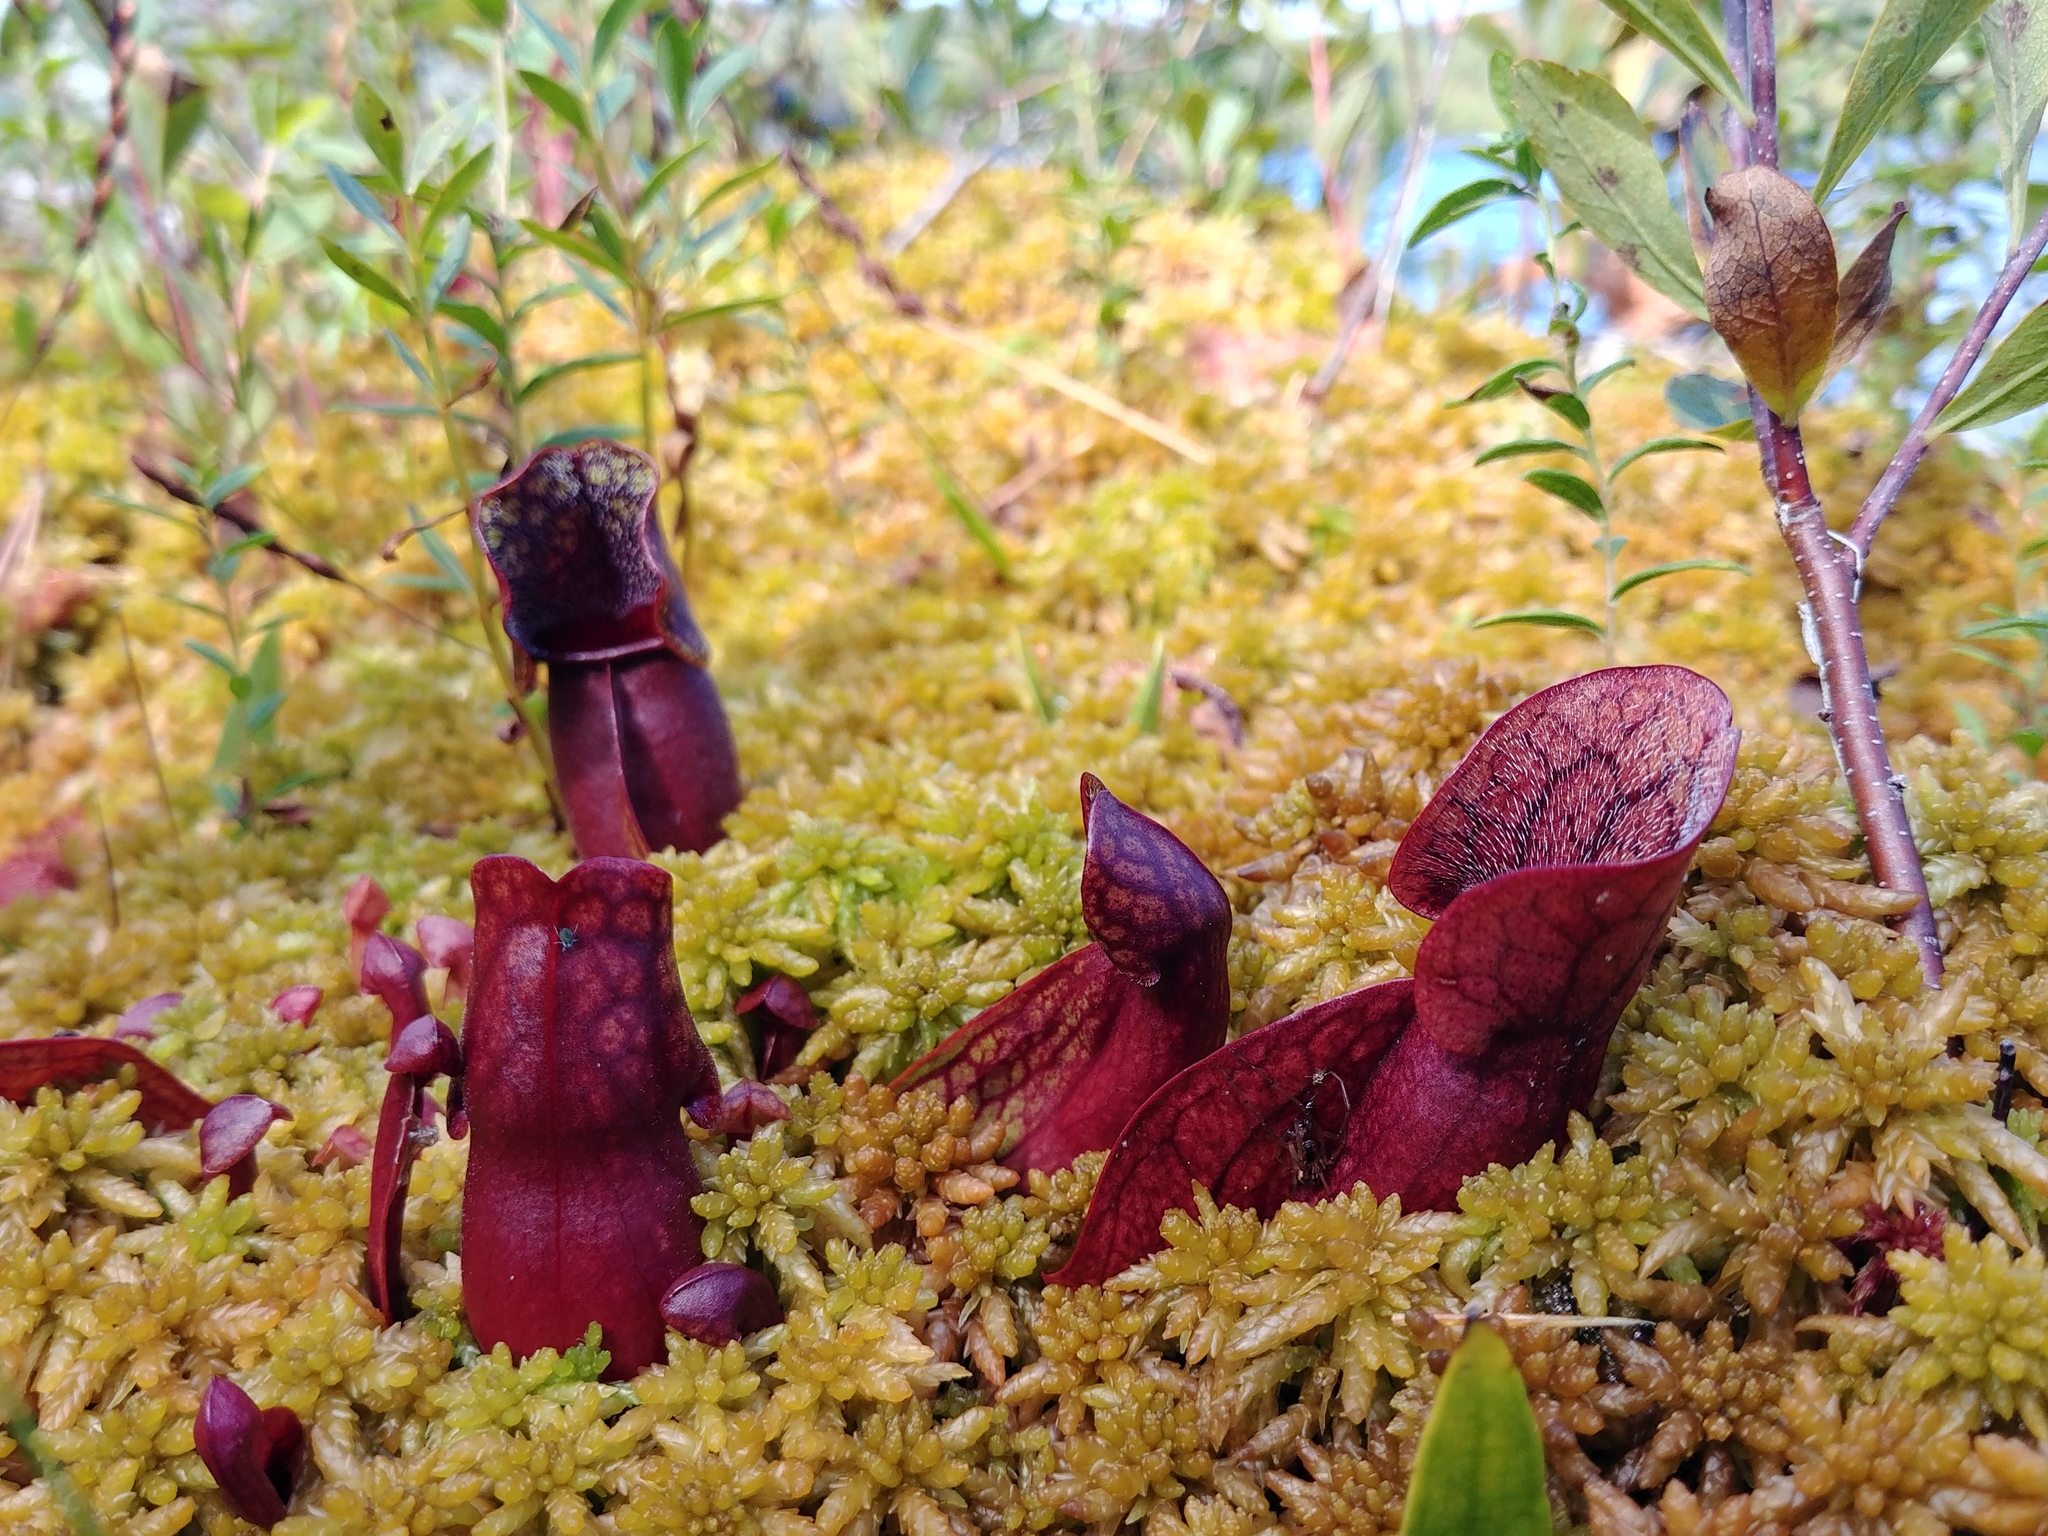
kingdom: Plantae
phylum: Tracheophyta
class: Magnoliopsida
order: Ericales
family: Sarraceniaceae
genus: Sarracenia
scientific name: Sarracenia purpurea
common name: Pitcherplant
